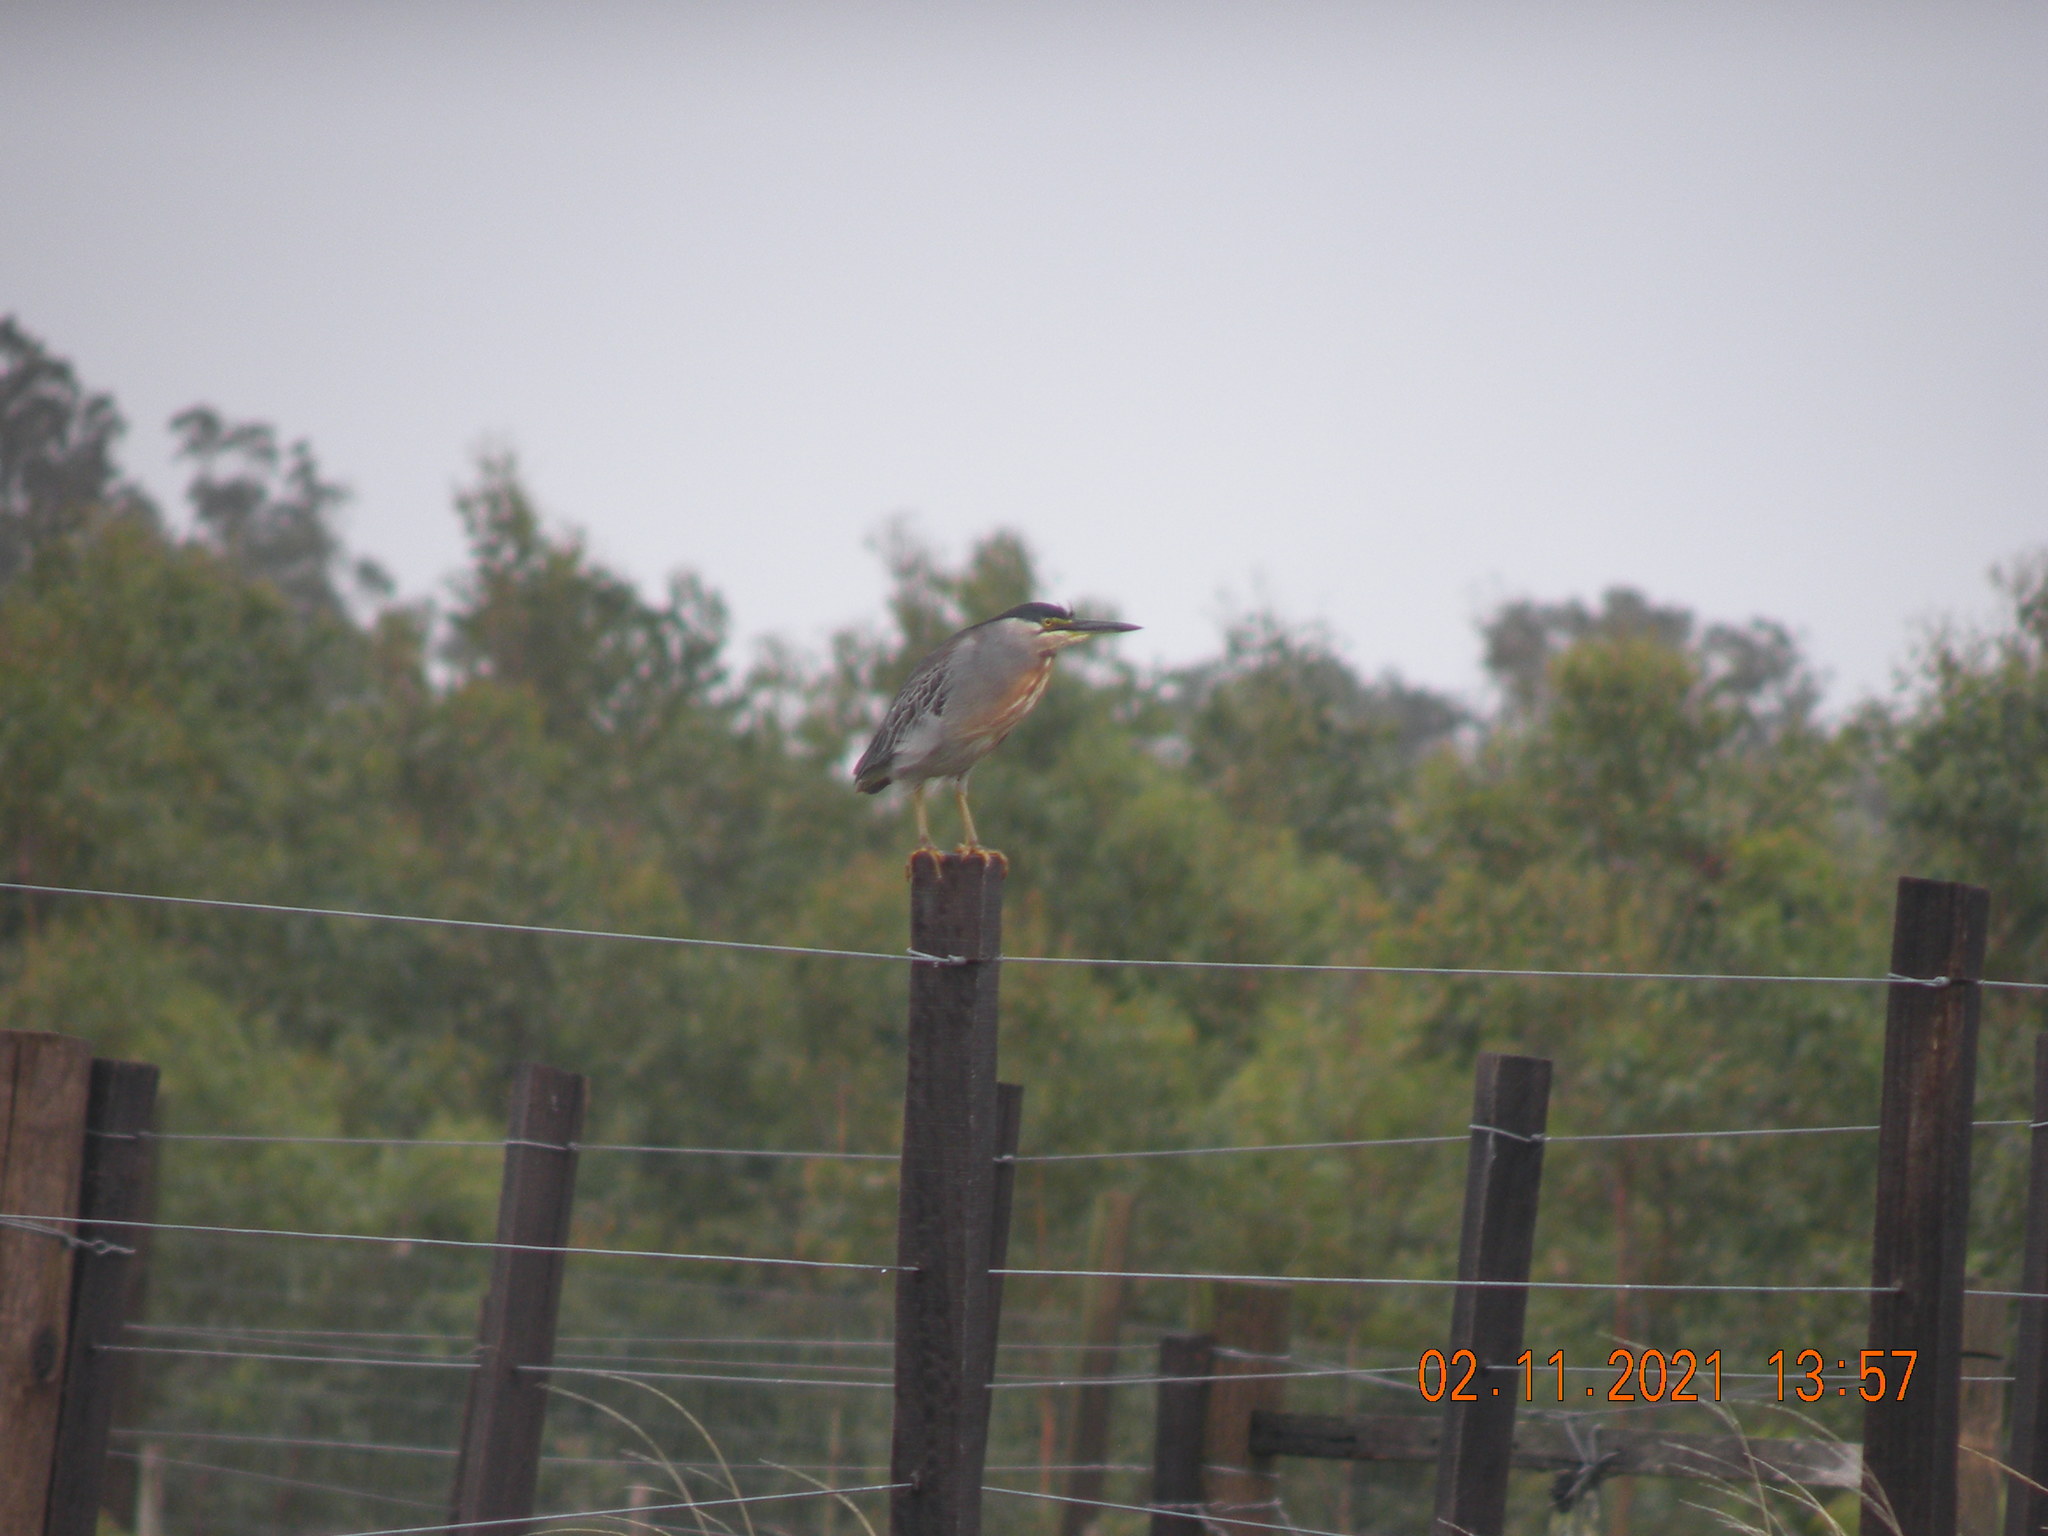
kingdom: Animalia
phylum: Chordata
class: Aves
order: Pelecaniformes
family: Ardeidae
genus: Butorides
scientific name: Butorides striata
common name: Striated heron
